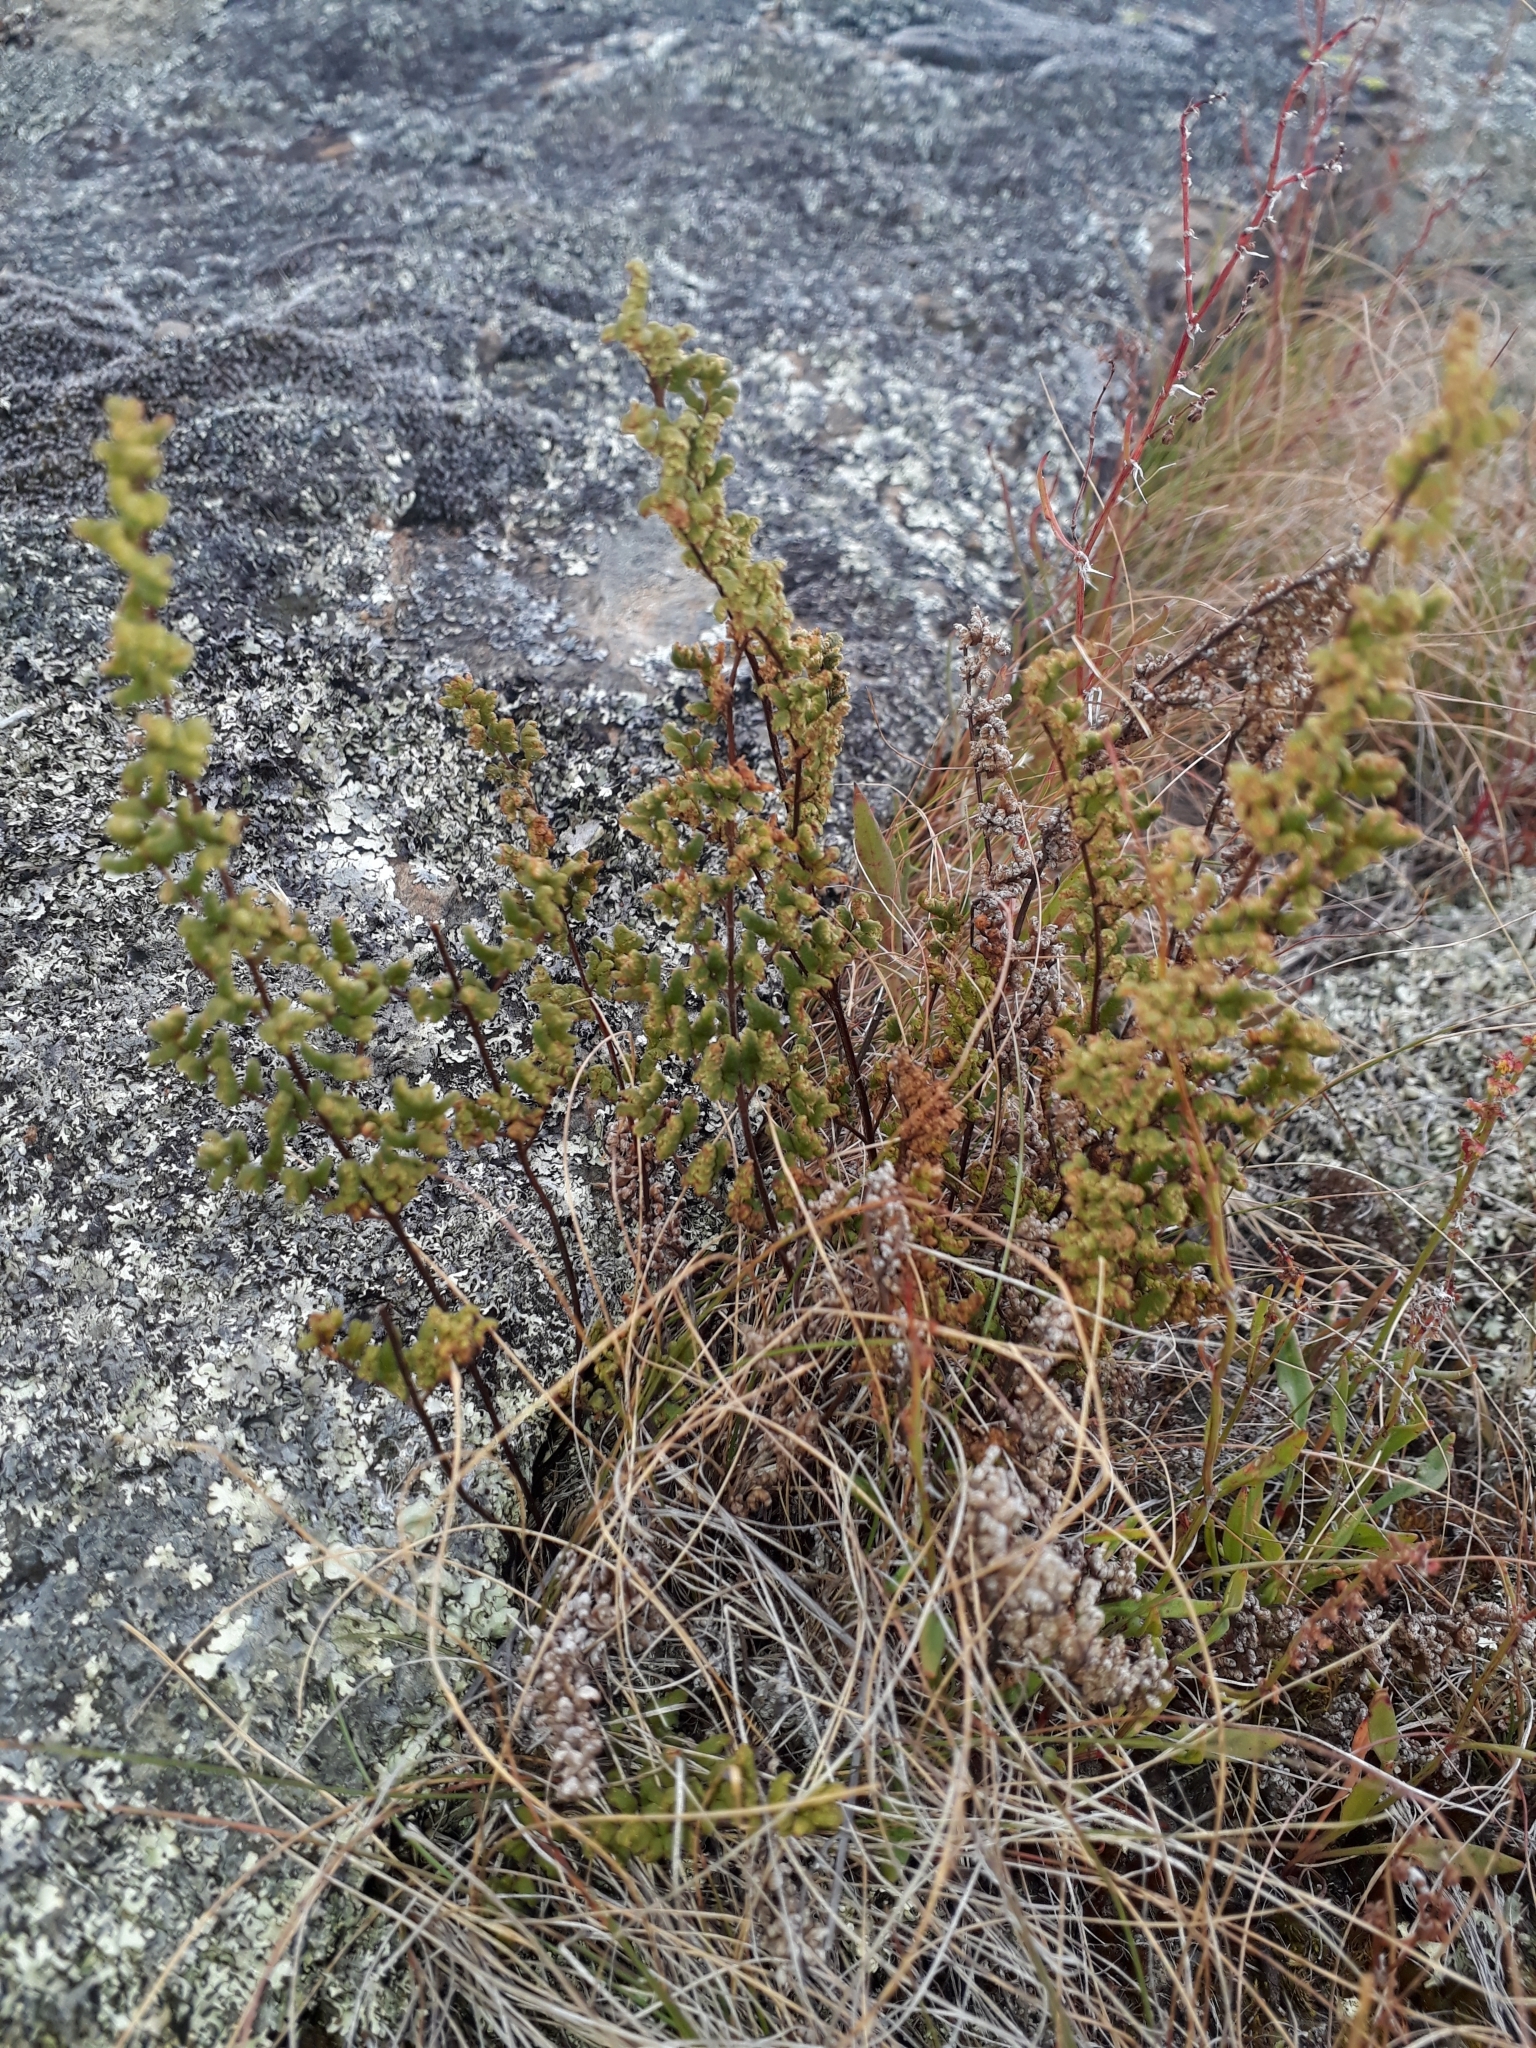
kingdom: Plantae
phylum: Tracheophyta
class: Polypodiopsida
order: Polypodiales
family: Pteridaceae
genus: Cheilanthes
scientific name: Cheilanthes sieberi
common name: Mulga fern
